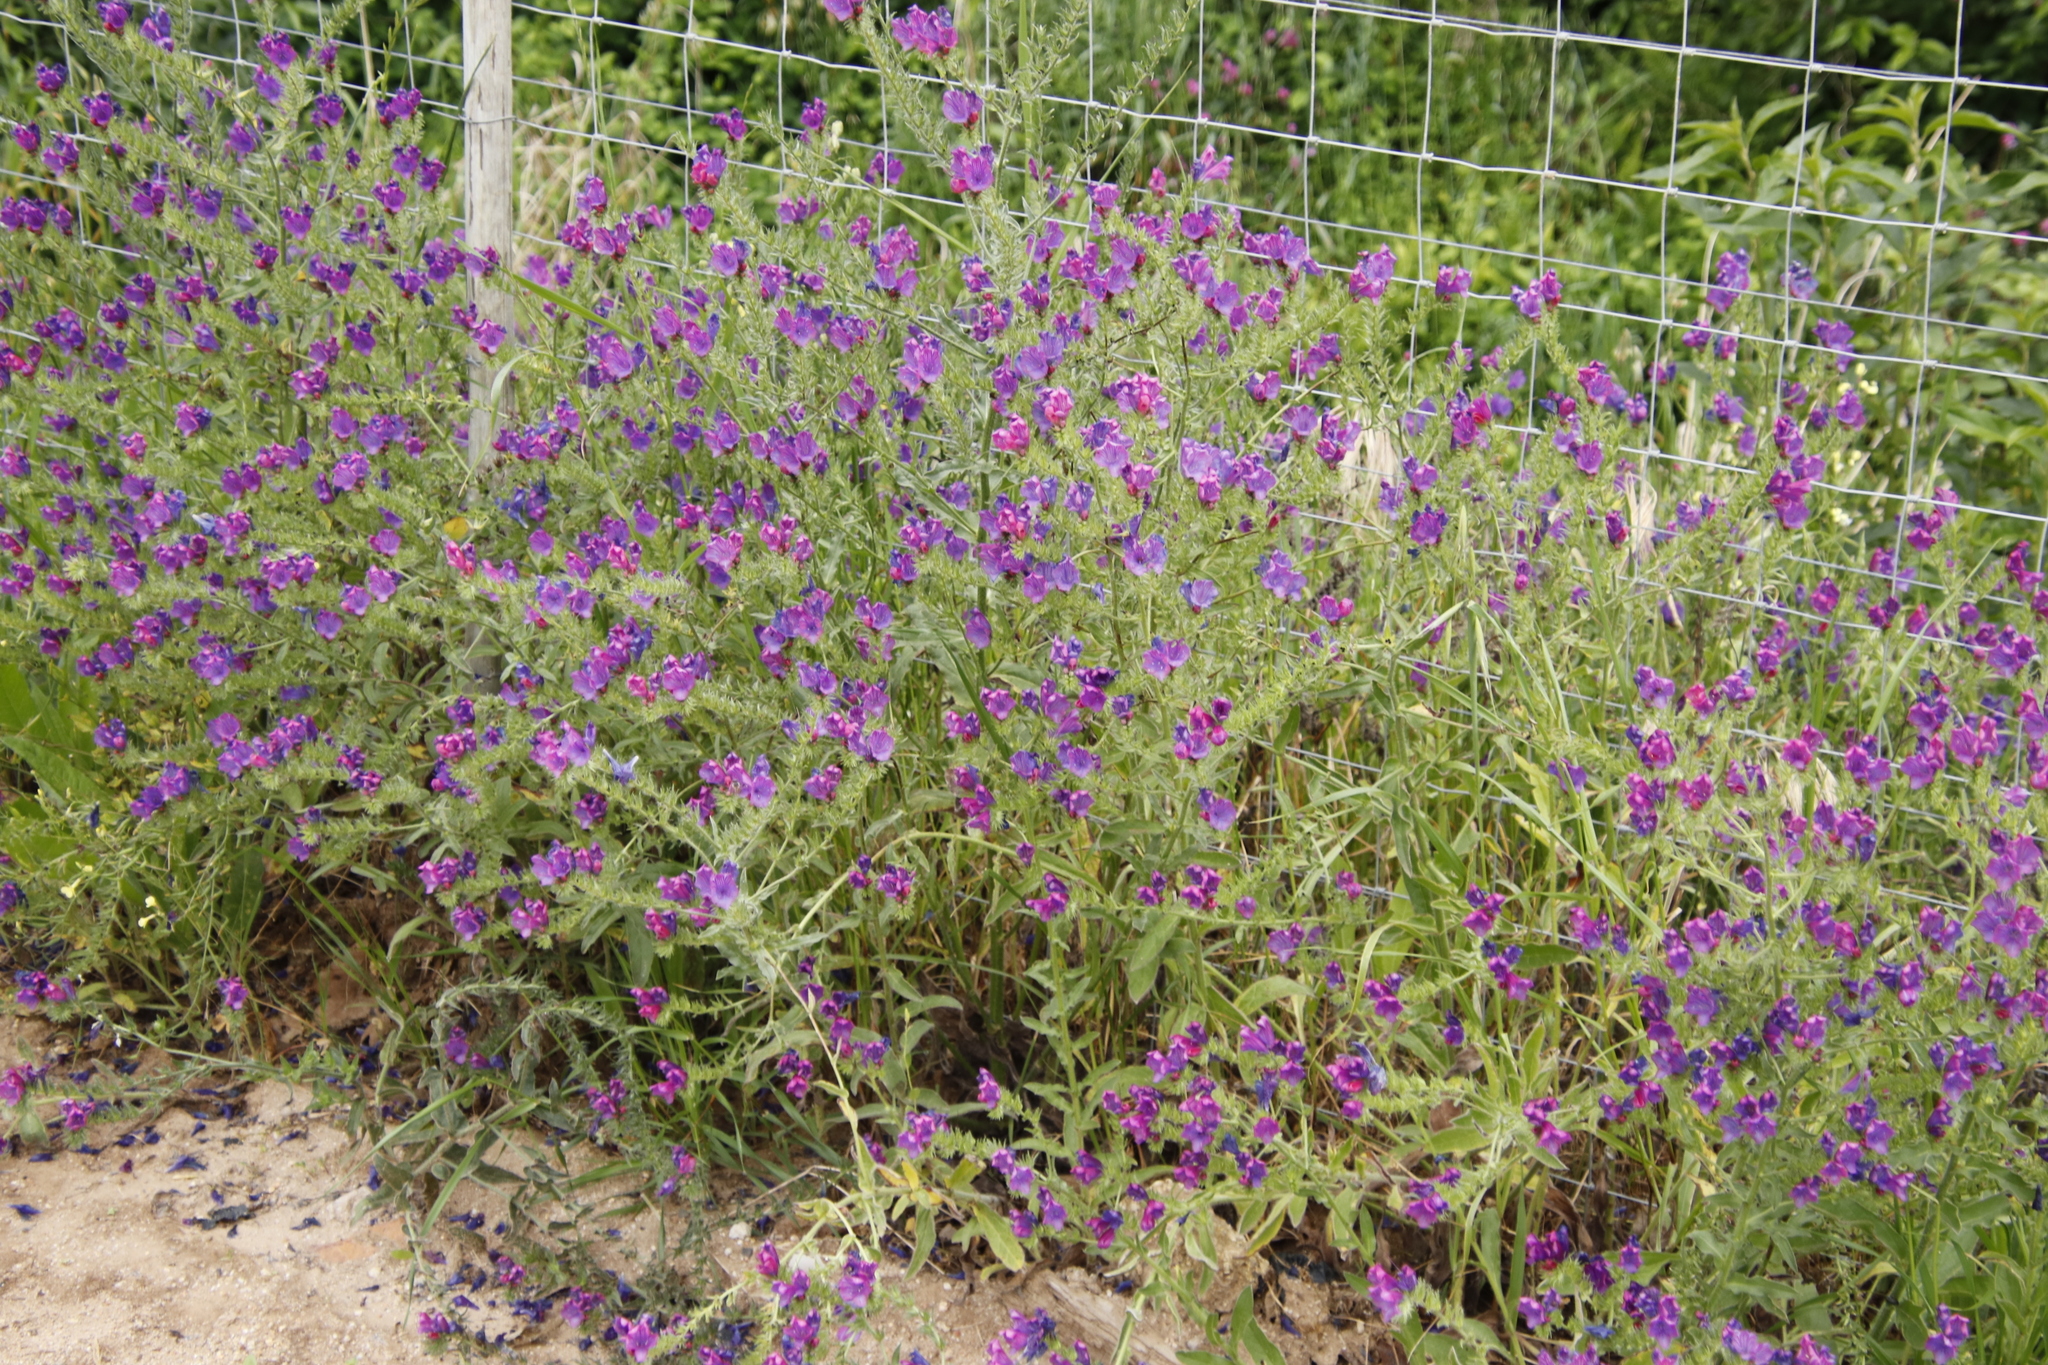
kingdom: Plantae
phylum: Tracheophyta
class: Magnoliopsida
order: Boraginales
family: Boraginaceae
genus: Echium
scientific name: Echium plantagineum
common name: Purple viper's-bugloss
